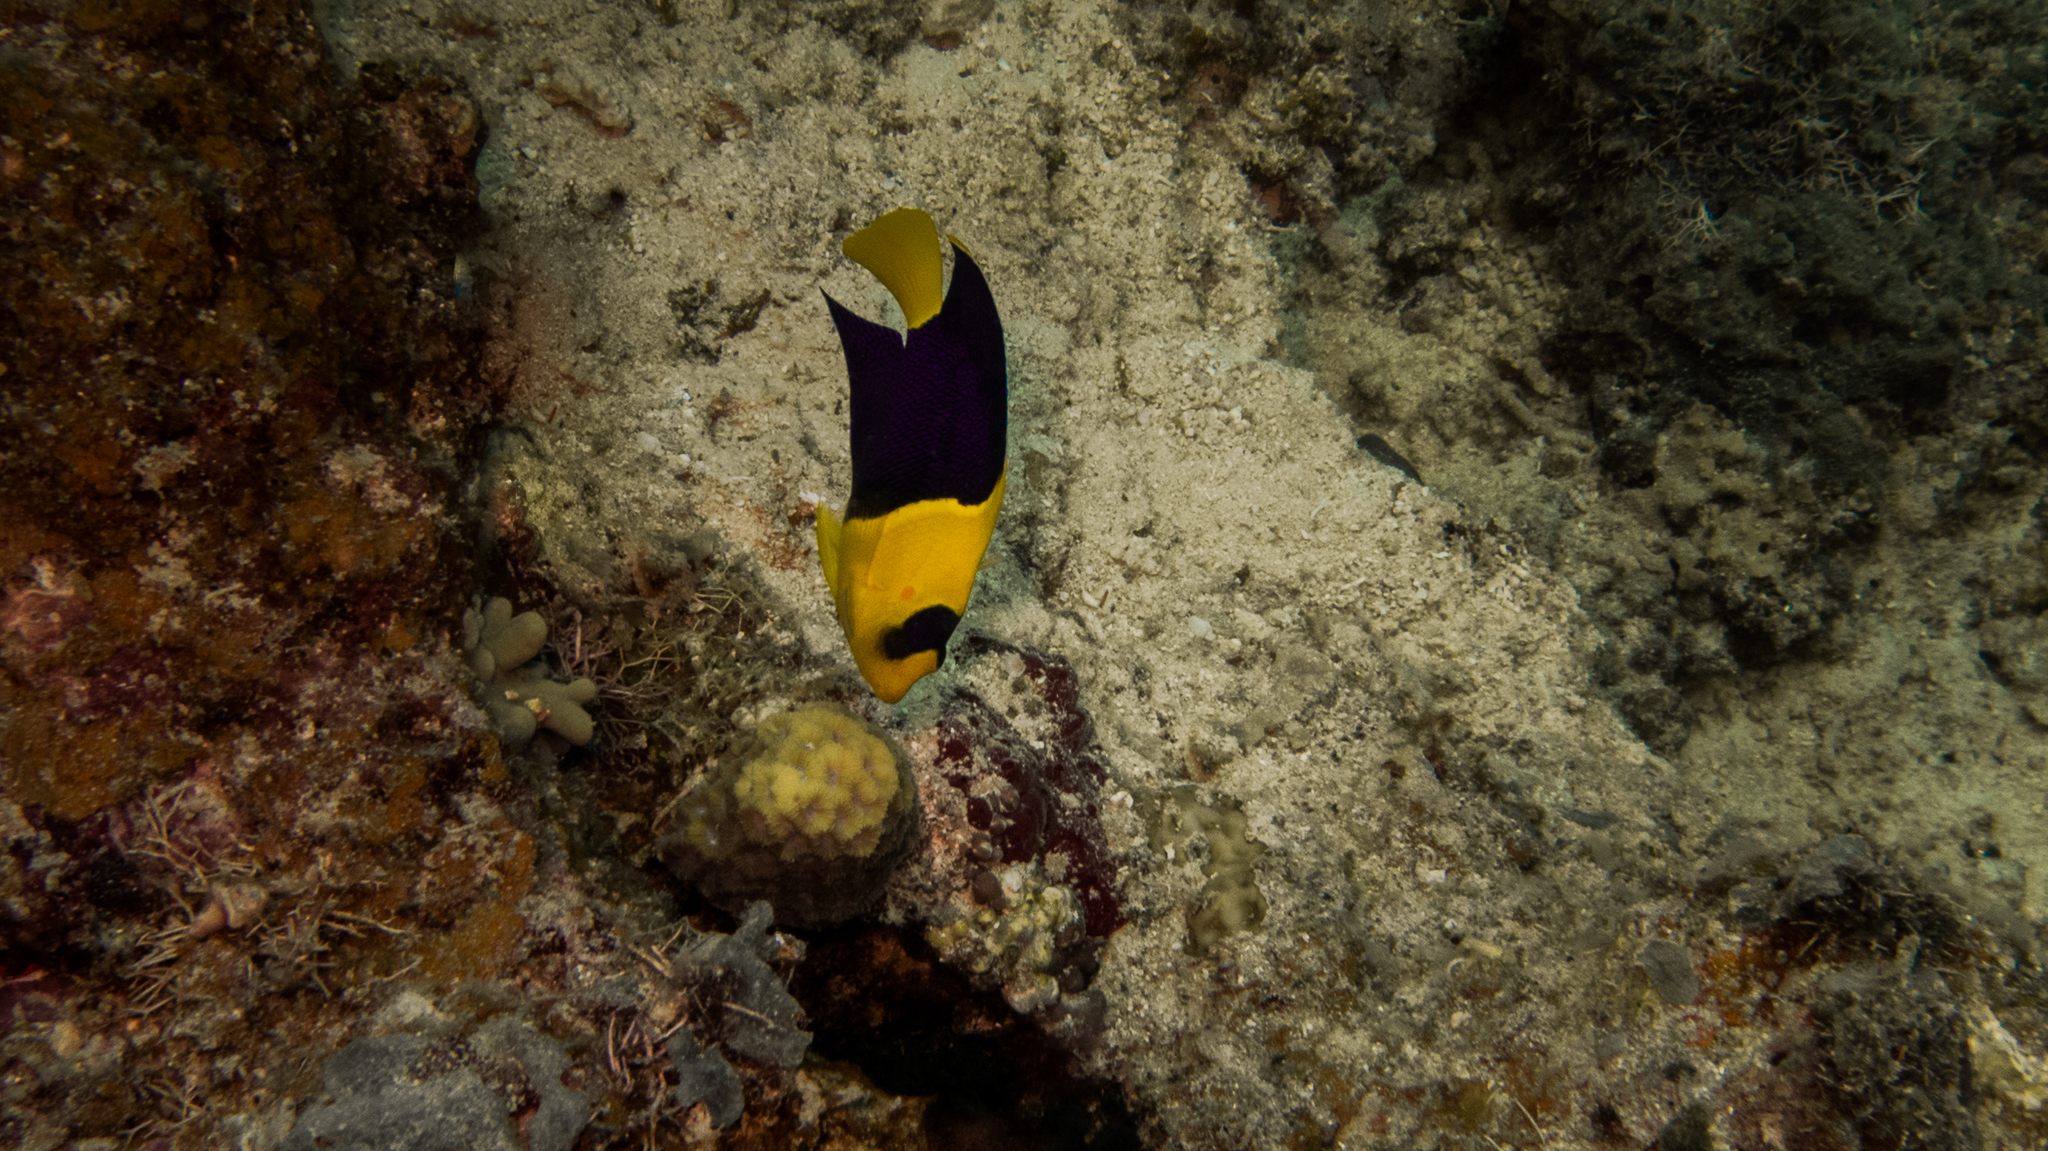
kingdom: Animalia
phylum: Chordata
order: Perciformes
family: Pomacanthidae
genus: Centropyge
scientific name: Centropyge bicolor
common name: Bicolor angelfish
